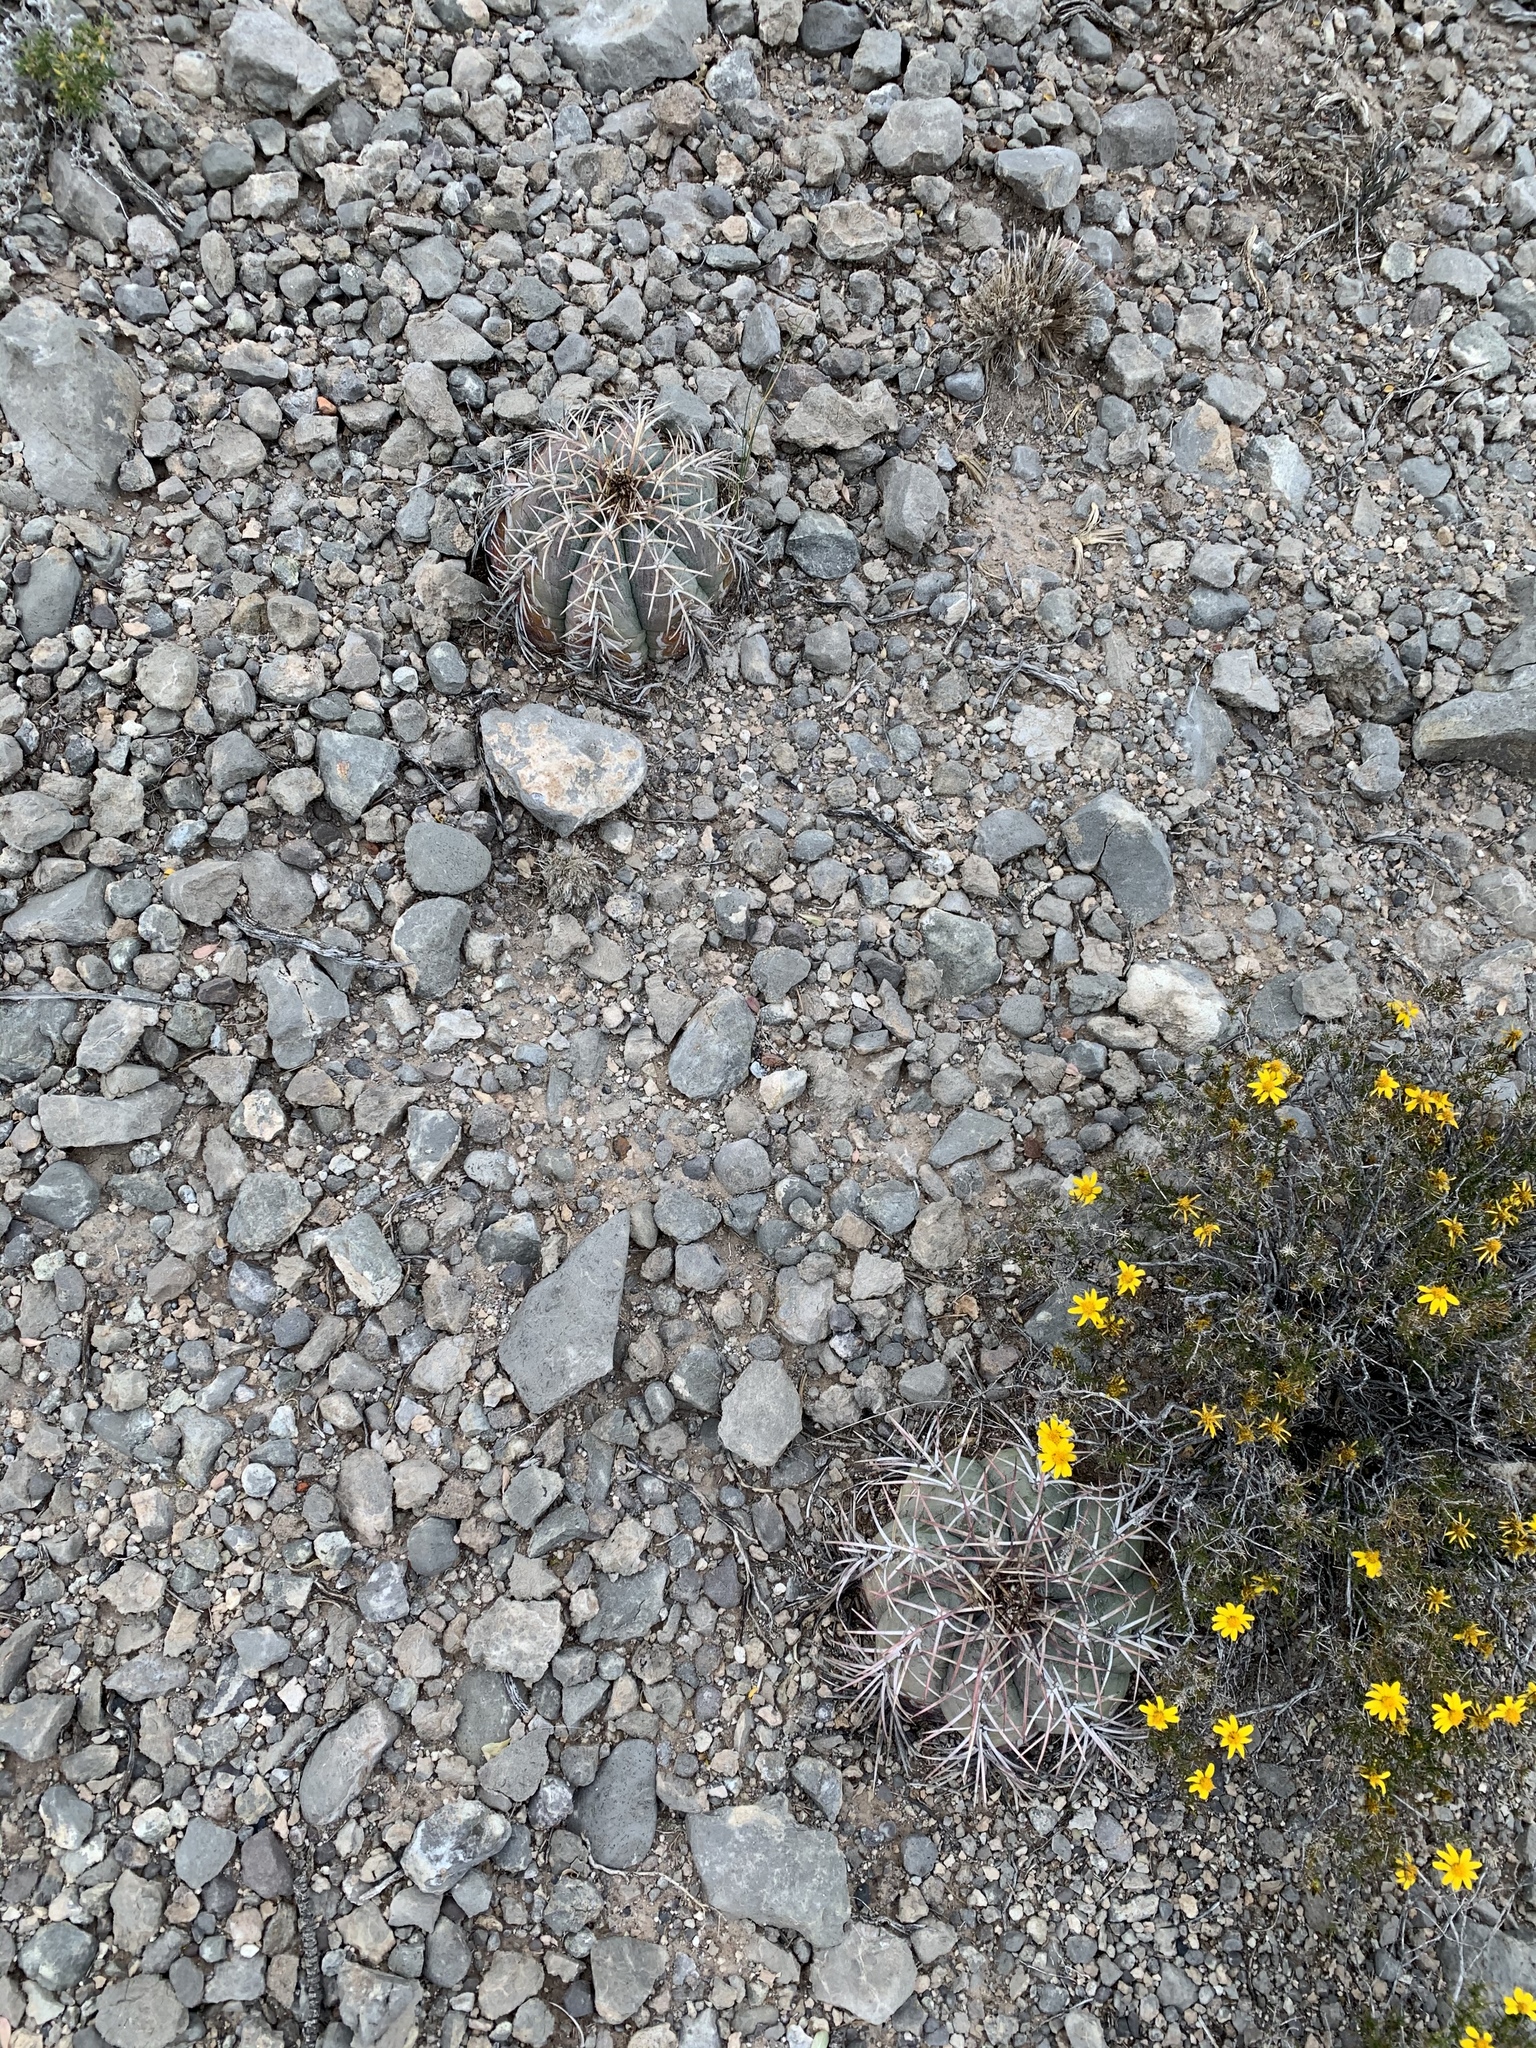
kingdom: Plantae
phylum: Tracheophyta
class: Magnoliopsida
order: Caryophyllales
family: Cactaceae
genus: Echinocactus
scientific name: Echinocactus horizonthalonius
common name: Devilshead
